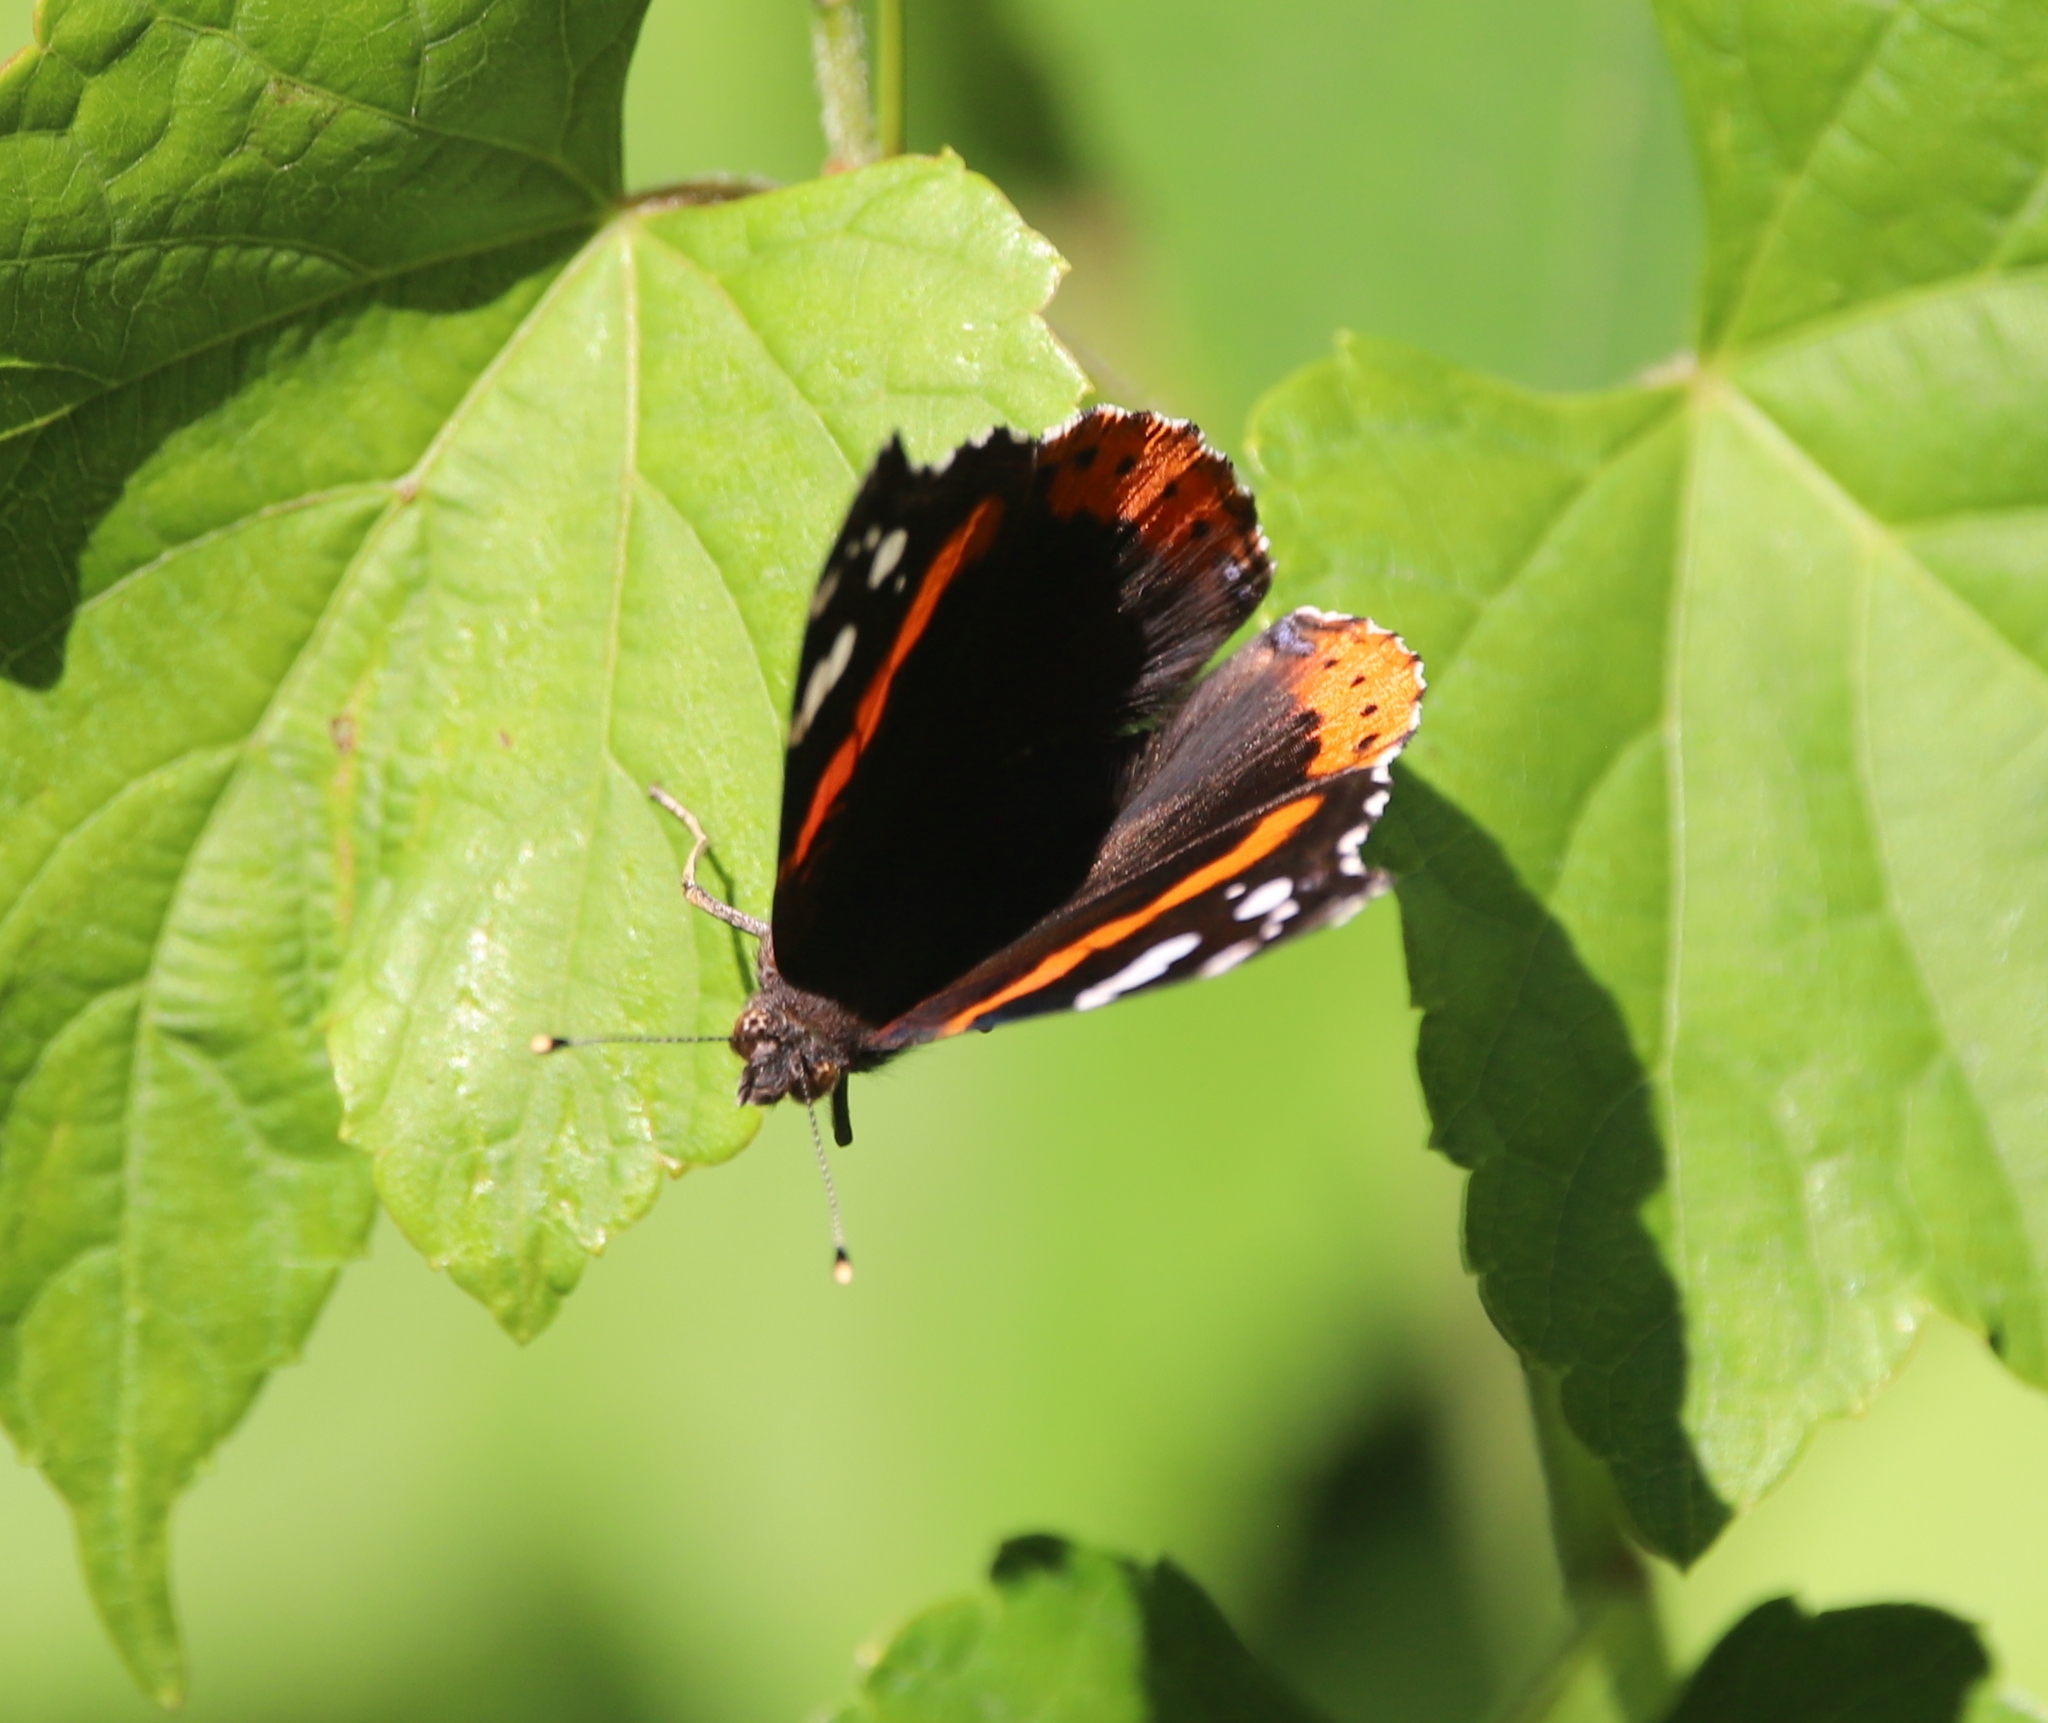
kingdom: Animalia
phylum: Arthropoda
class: Insecta
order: Lepidoptera
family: Nymphalidae
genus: Vanessa
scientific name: Vanessa atalanta
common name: Red admiral
